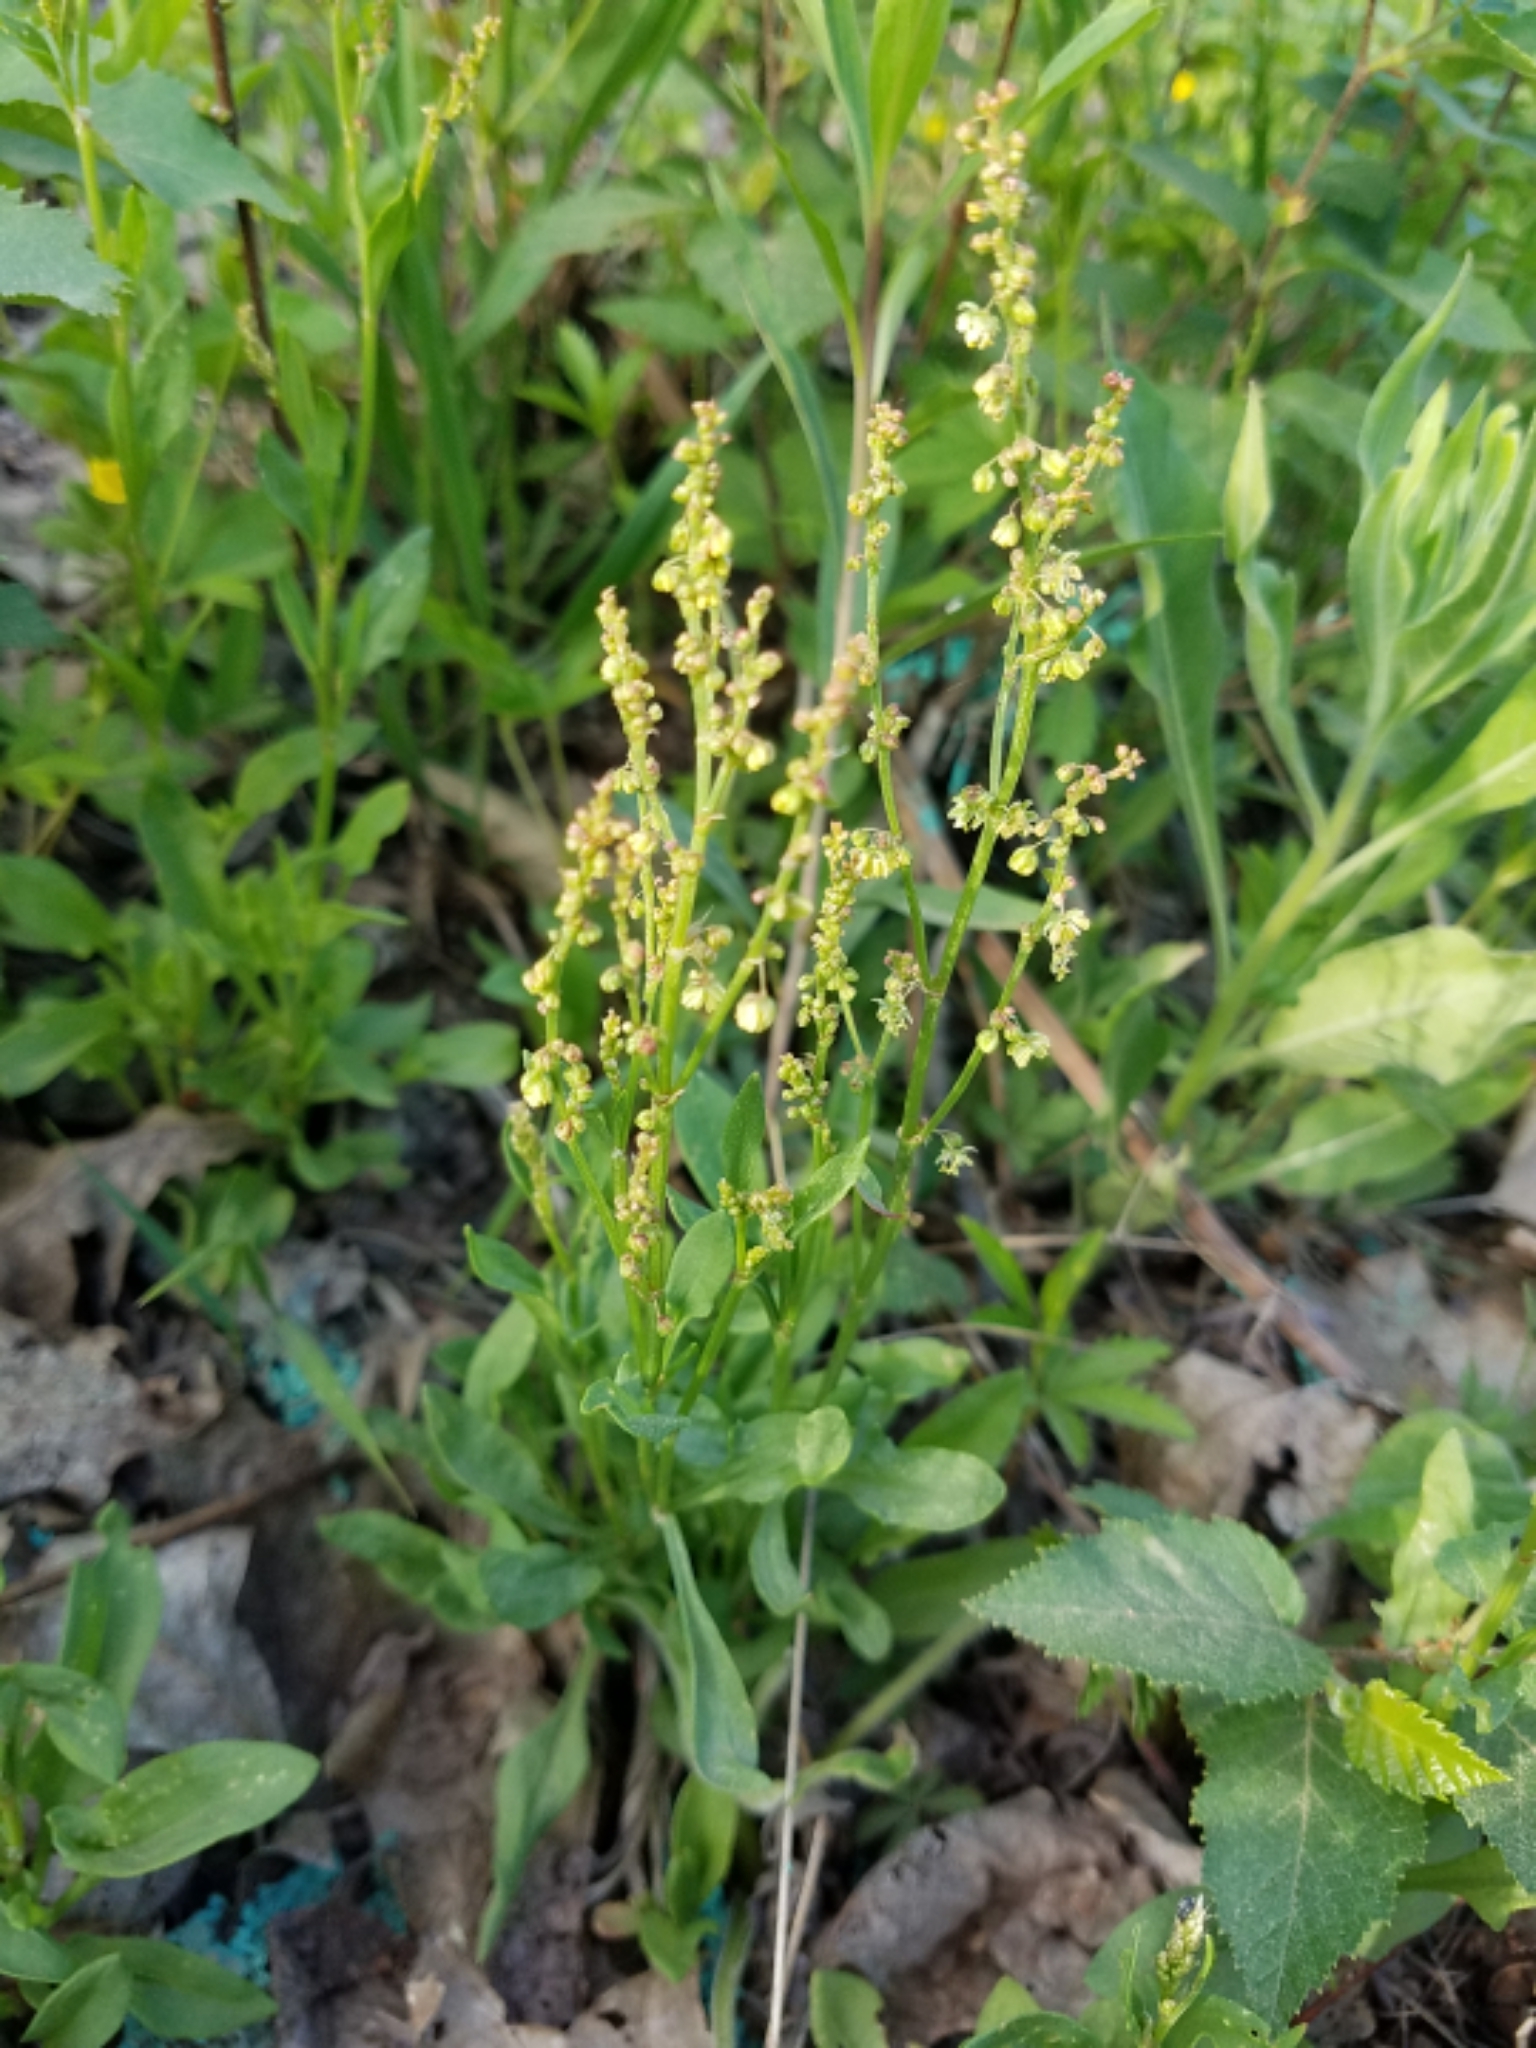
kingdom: Plantae
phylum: Tracheophyta
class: Magnoliopsida
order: Caryophyllales
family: Polygonaceae
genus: Rumex
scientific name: Rumex acetosella
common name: Common sheep sorrel
